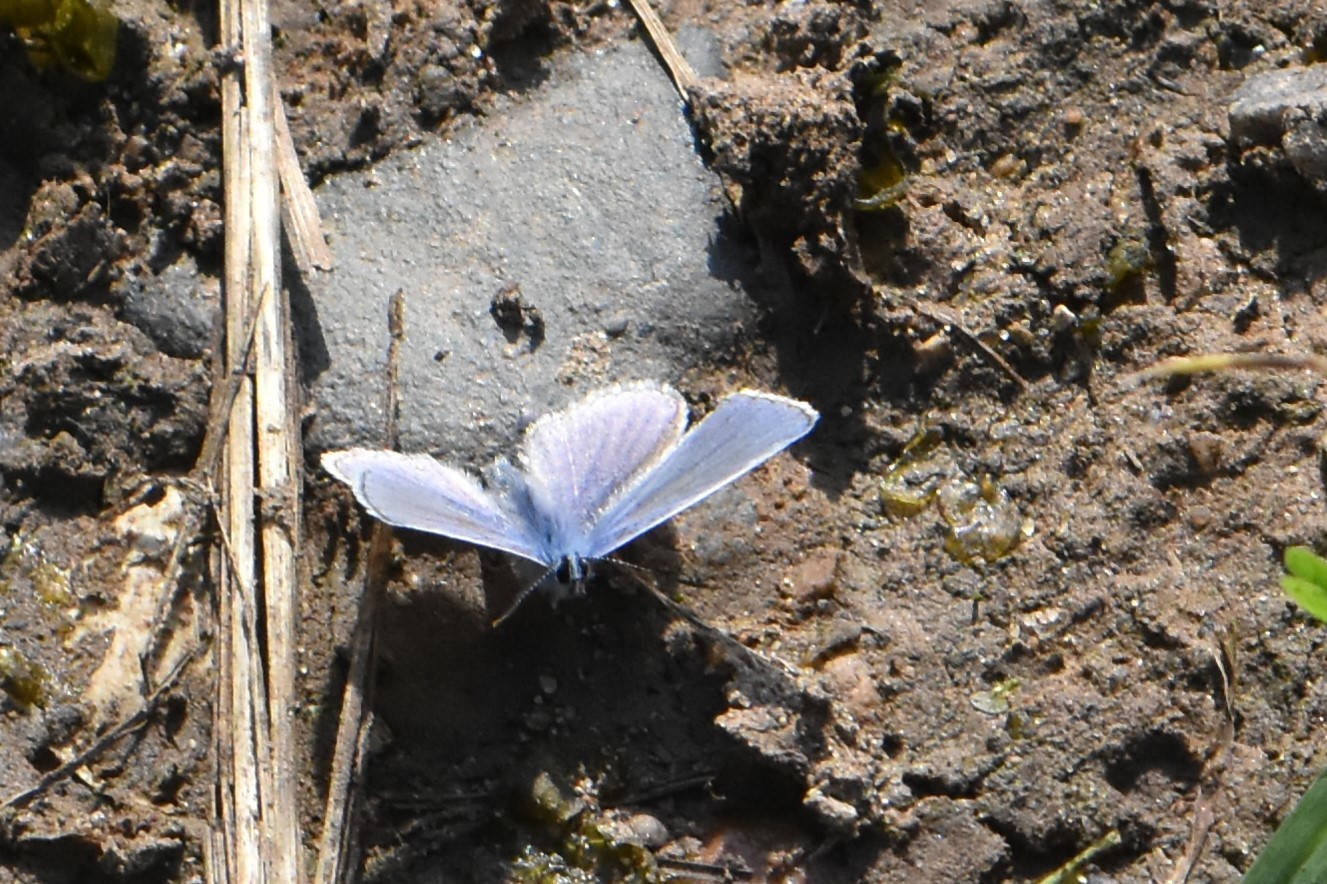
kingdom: Animalia
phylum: Arthropoda
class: Insecta
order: Lepidoptera
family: Lycaenidae
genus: Polyommatus
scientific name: Polyommatus icarus
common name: Common blue
